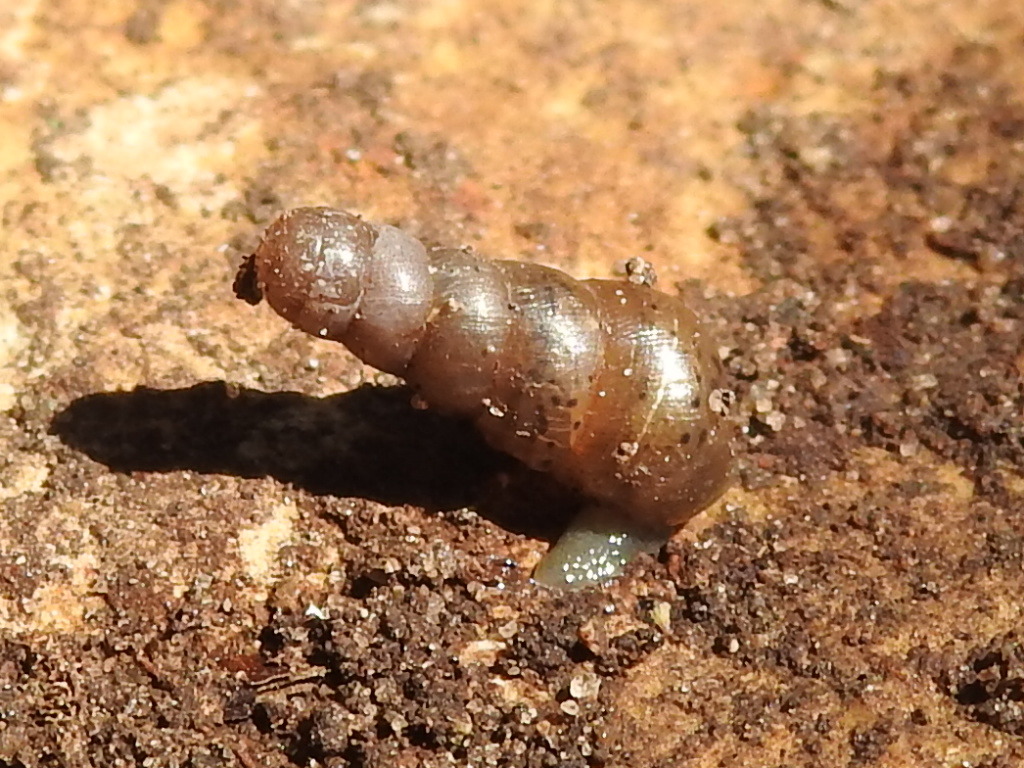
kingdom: Animalia
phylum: Mollusca
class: Gastropoda
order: Stylommatophora
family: Achatinidae
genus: Rumina
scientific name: Rumina decollata
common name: Decollate snail
